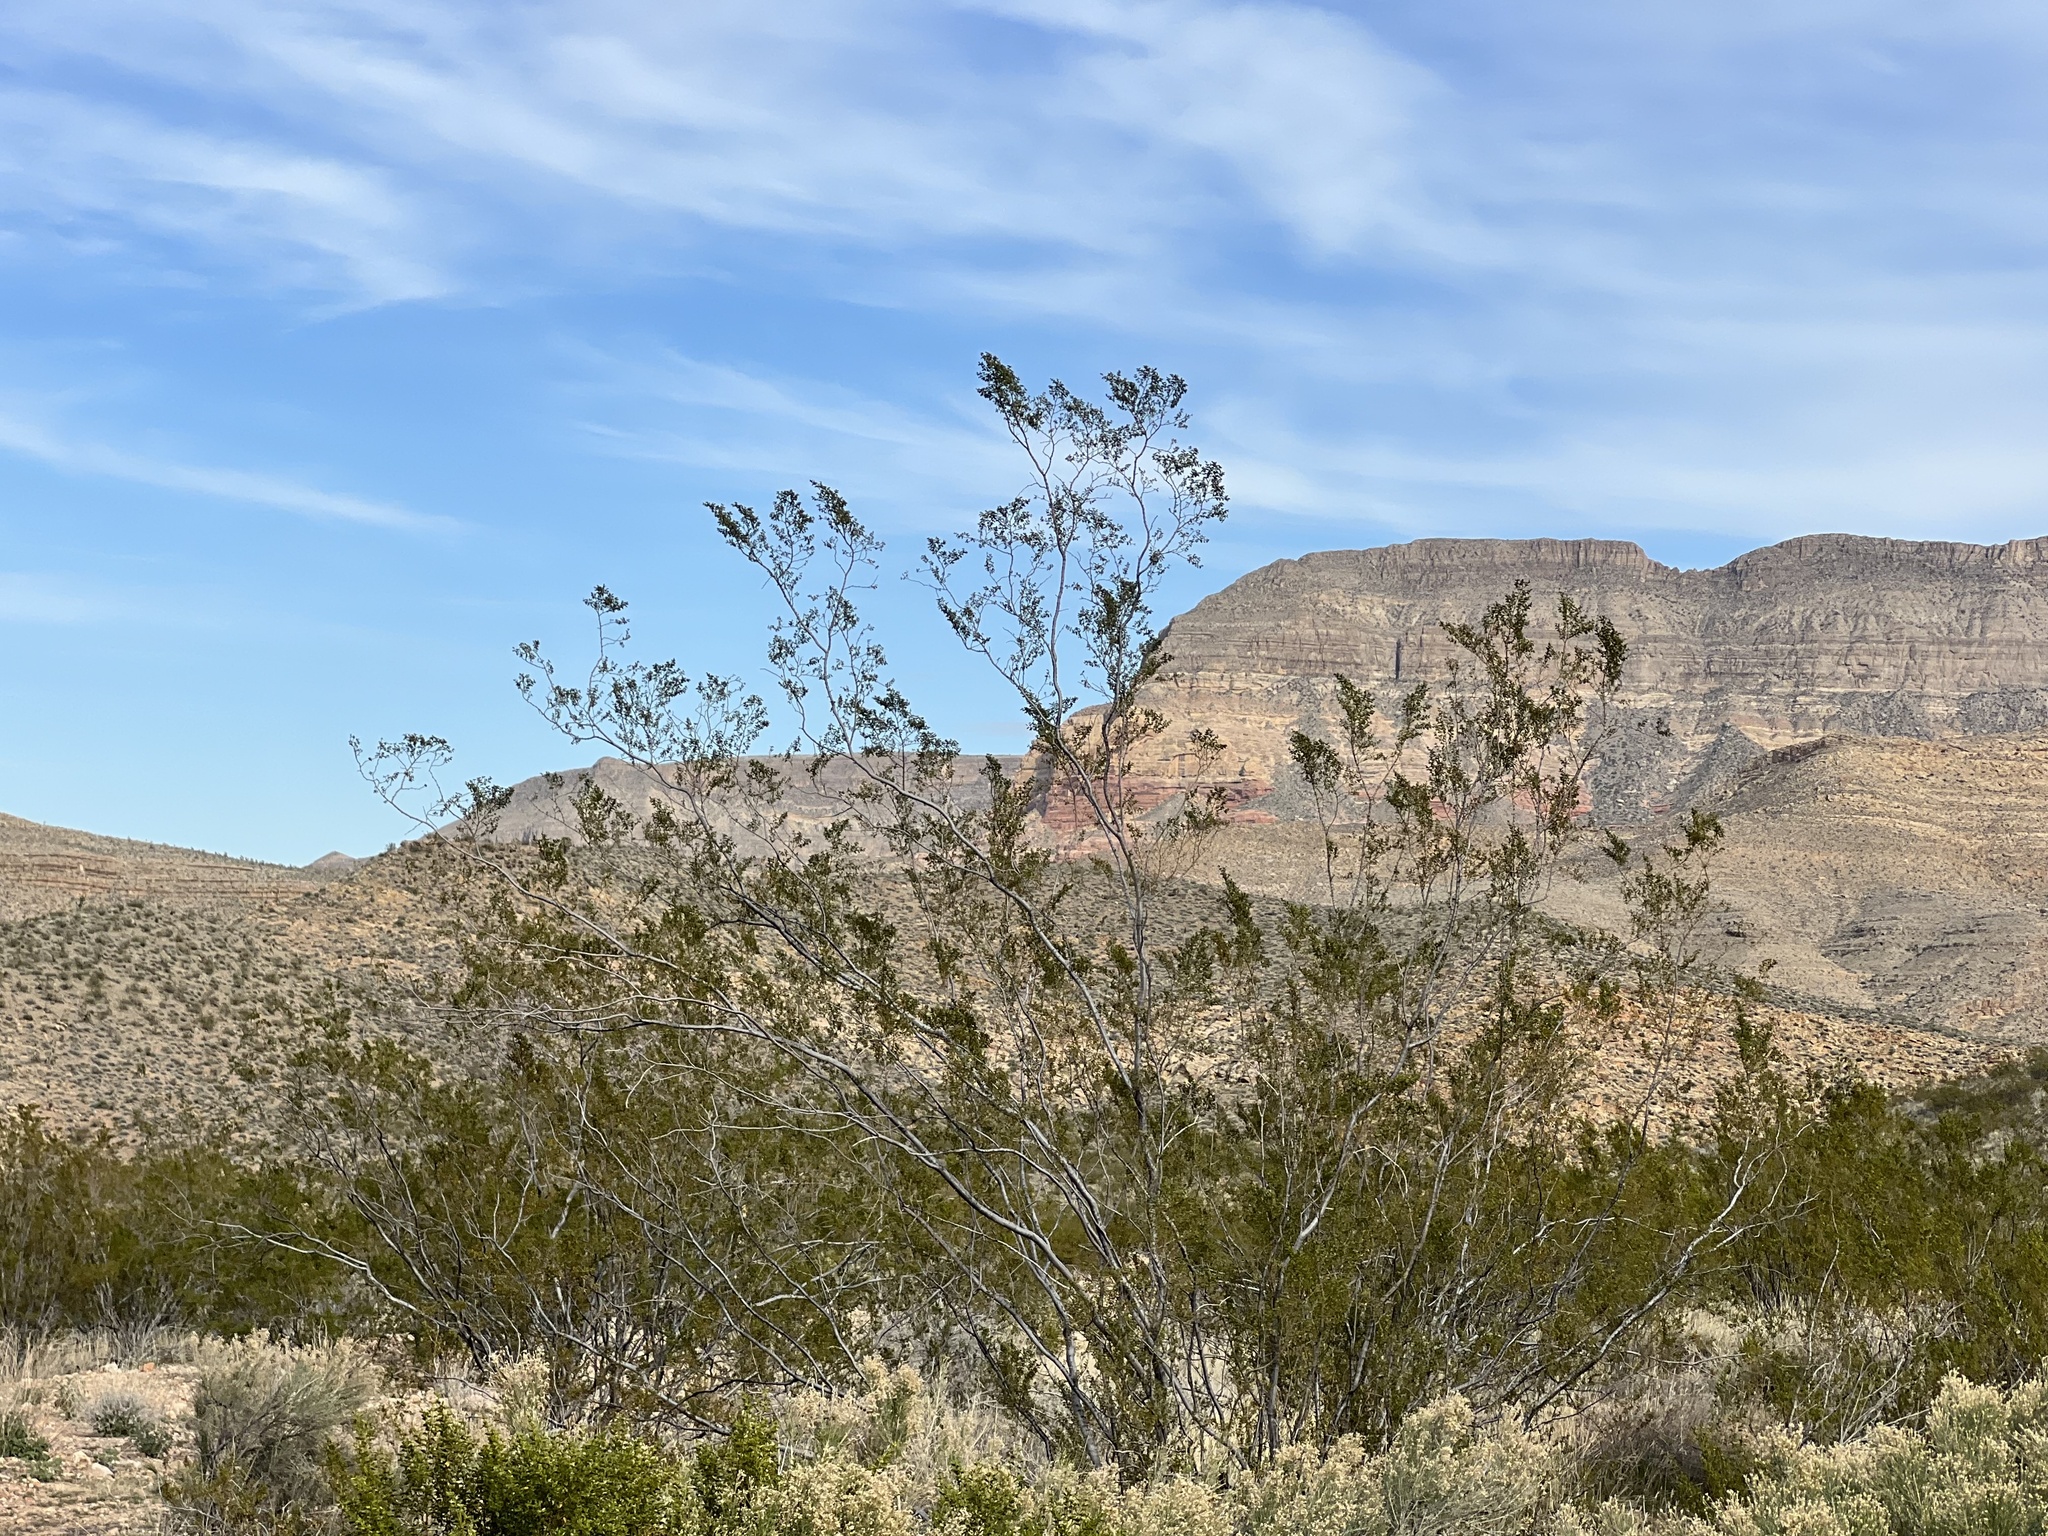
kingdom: Plantae
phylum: Tracheophyta
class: Magnoliopsida
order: Zygophyllales
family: Zygophyllaceae
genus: Larrea
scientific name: Larrea tridentata
